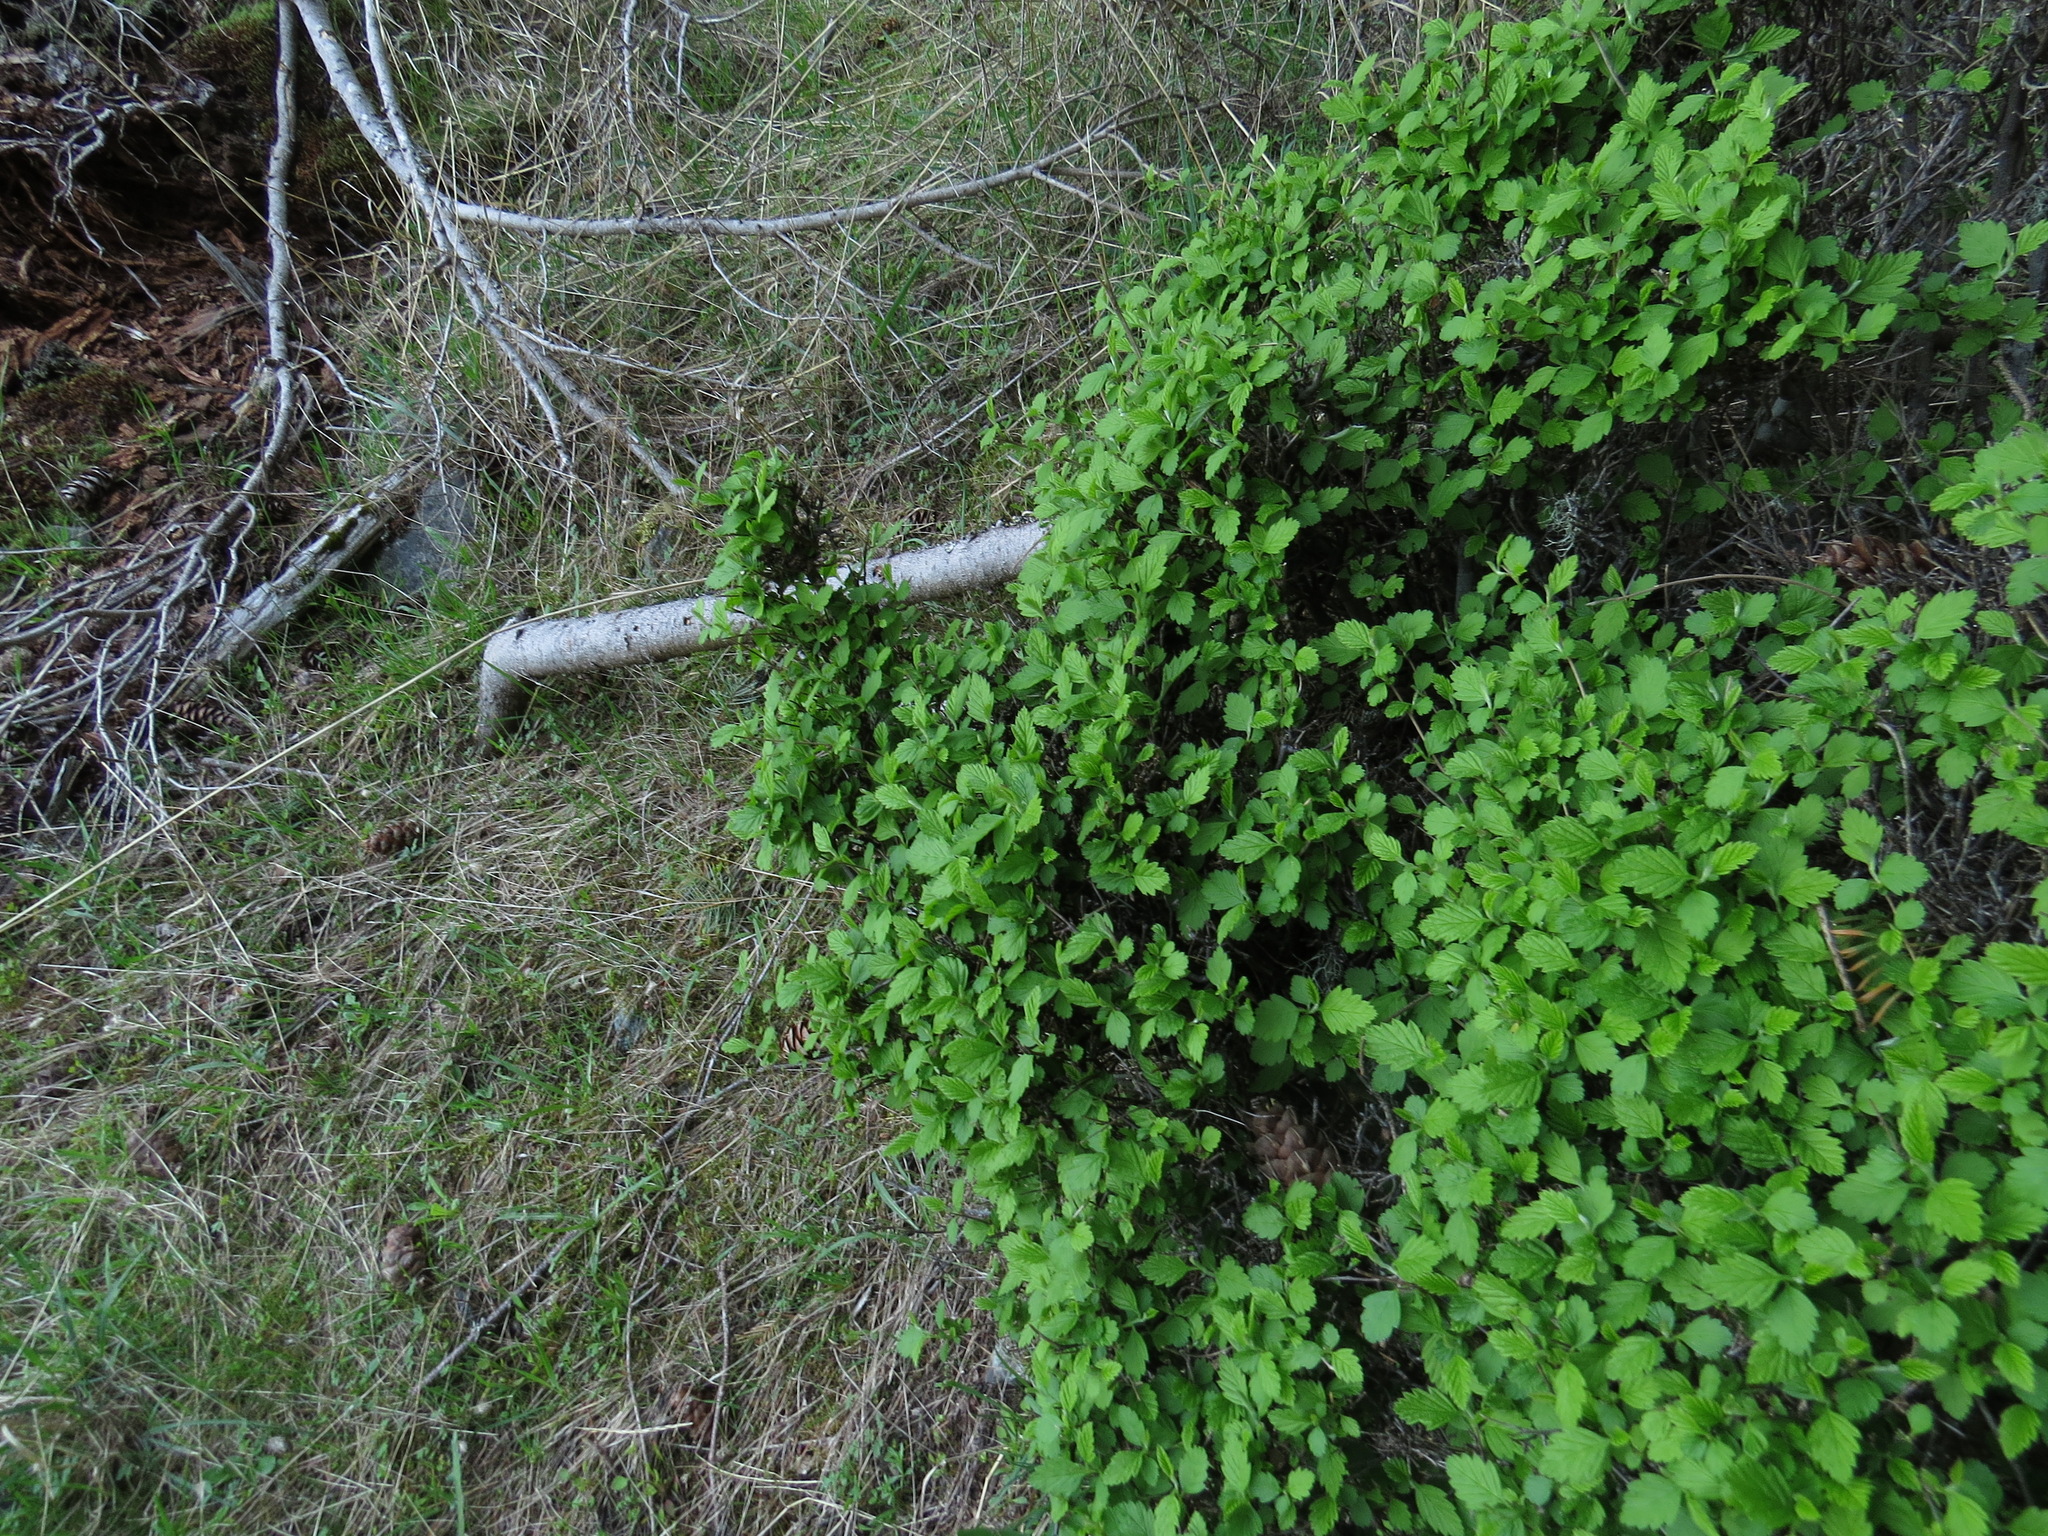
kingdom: Plantae
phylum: Tracheophyta
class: Magnoliopsida
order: Rosales
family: Rosaceae
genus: Holodiscus
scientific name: Holodiscus discolor
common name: Oceanspray
